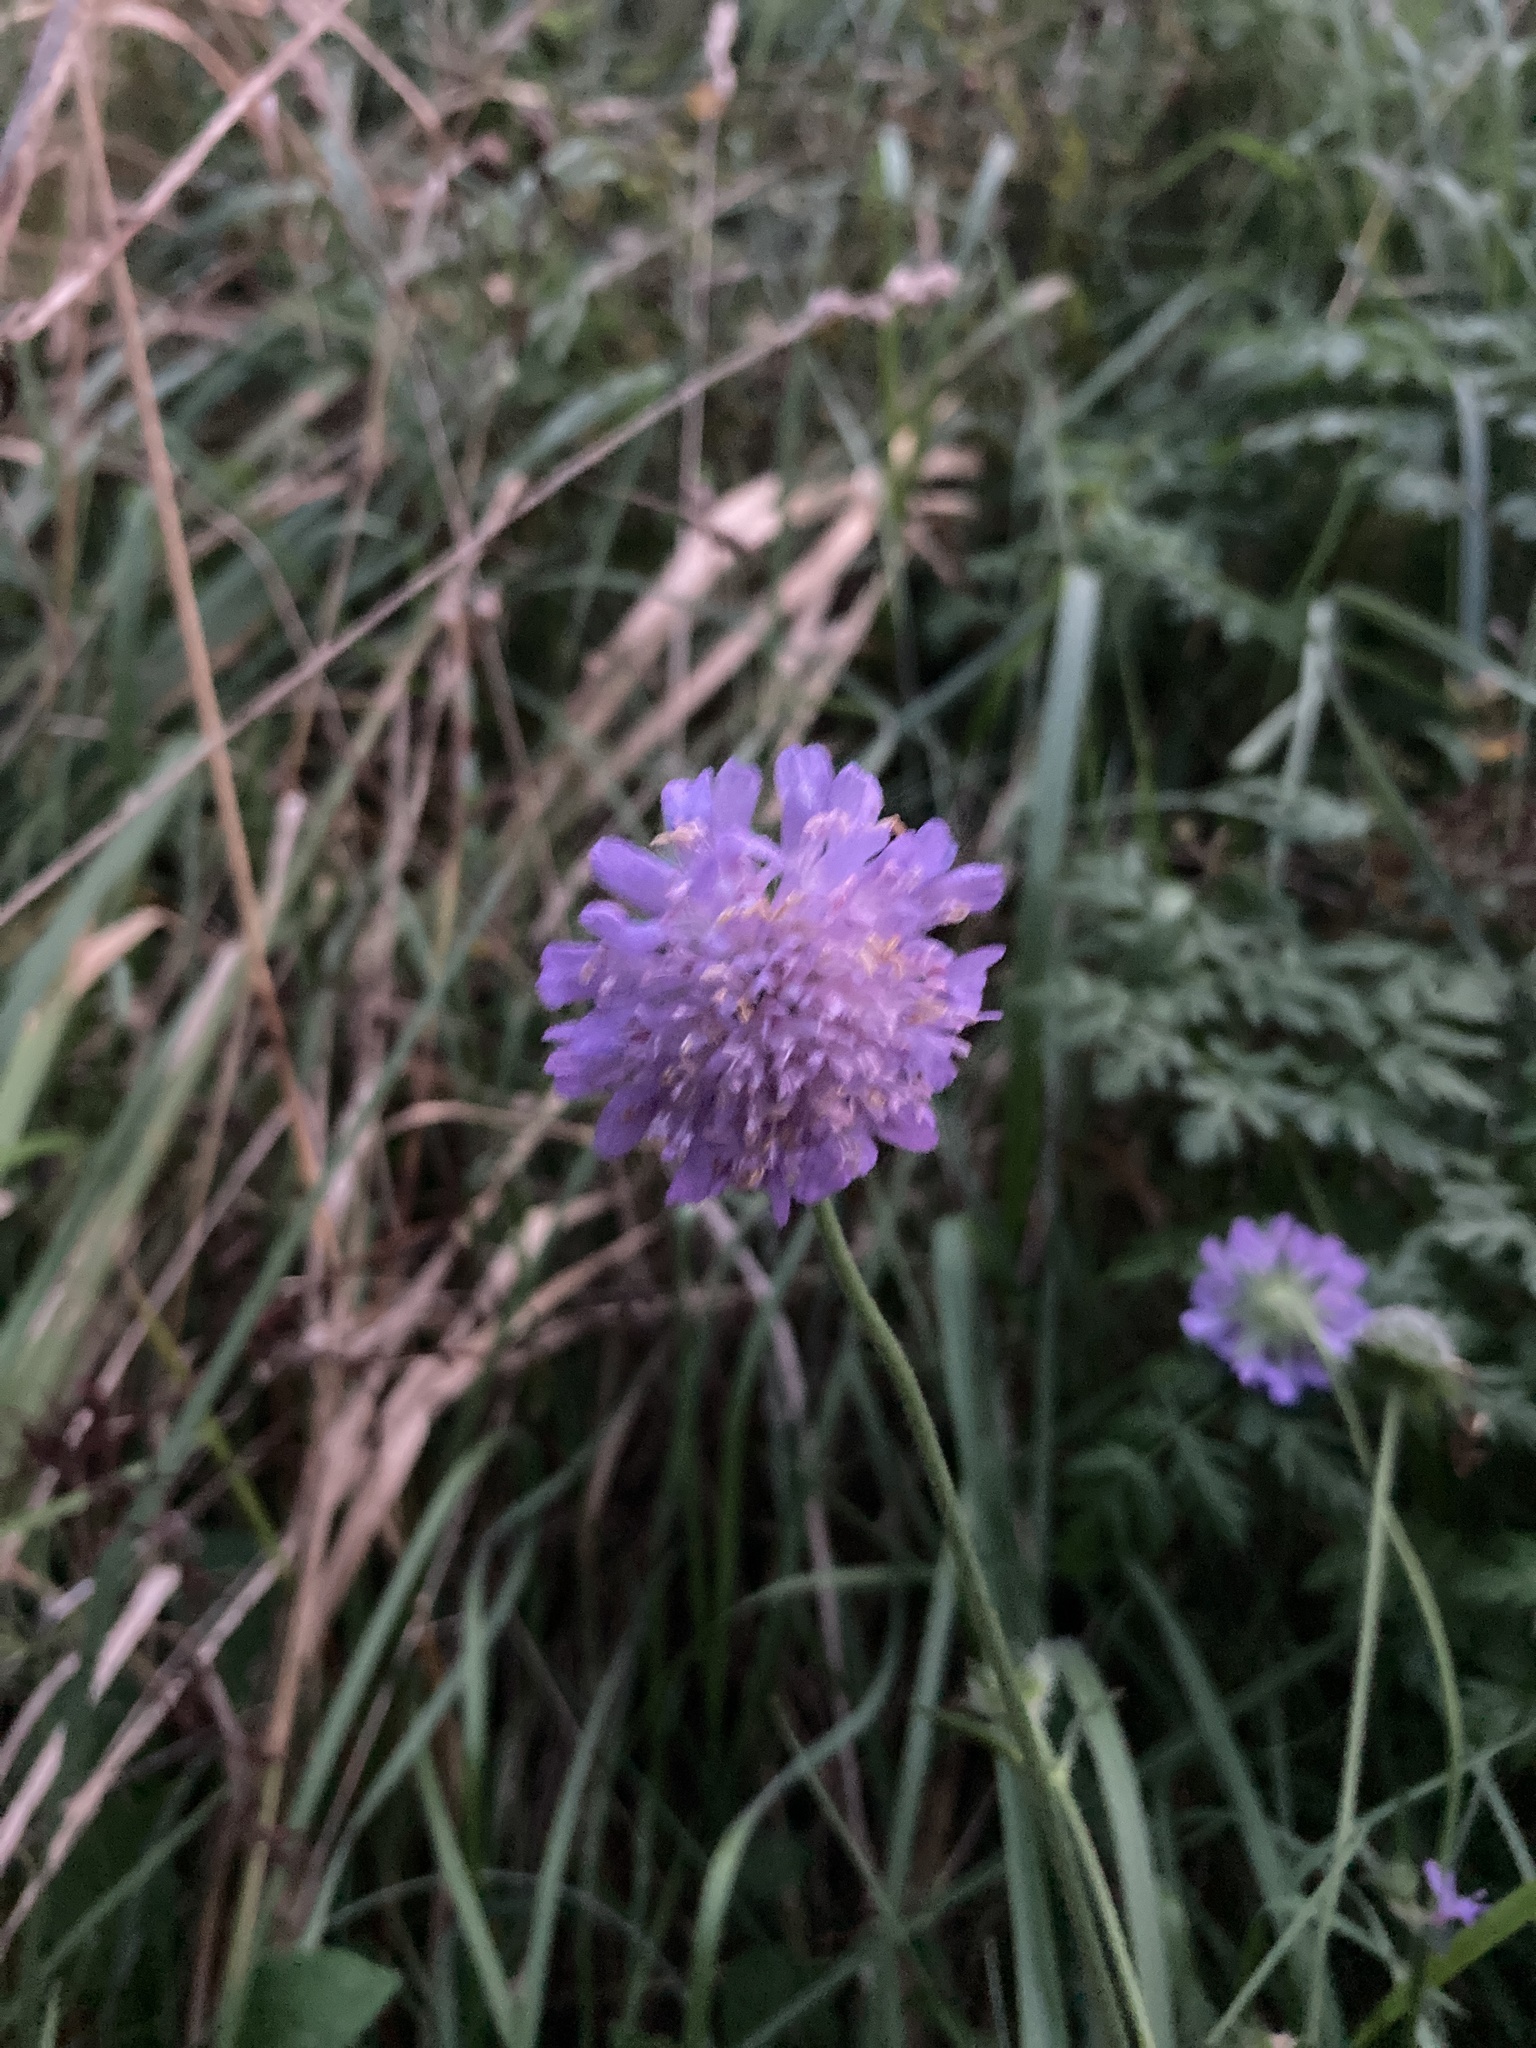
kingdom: Plantae
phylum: Tracheophyta
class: Magnoliopsida
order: Dipsacales
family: Caprifoliaceae
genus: Knautia
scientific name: Knautia arvensis
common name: Field scabiosa
